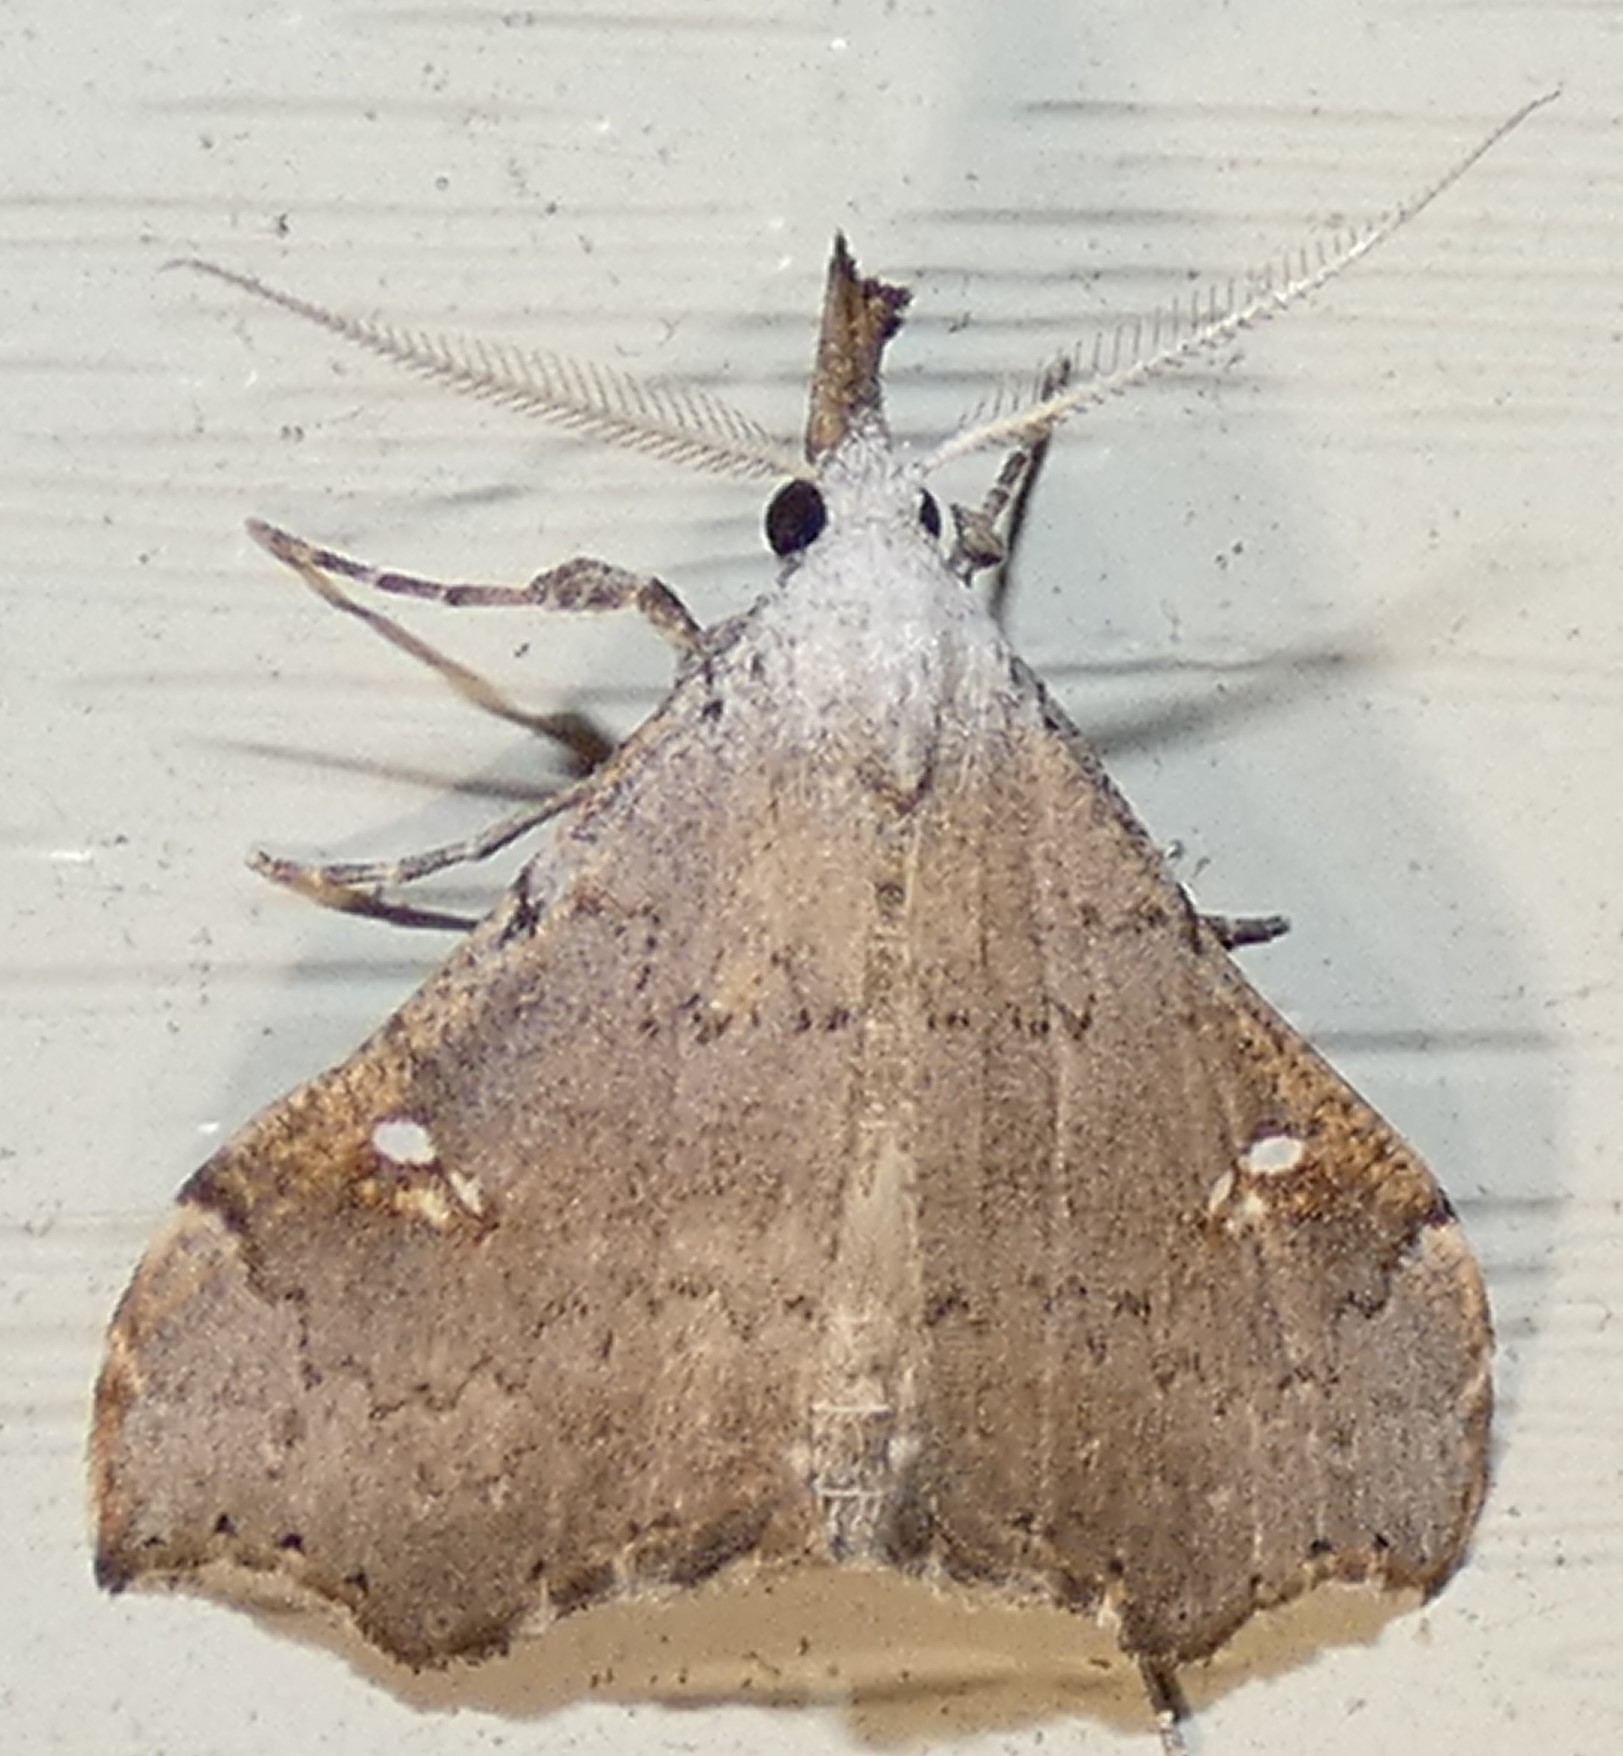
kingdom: Animalia
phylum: Arthropoda
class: Insecta
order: Lepidoptera
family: Erebidae
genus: Redectis
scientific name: Redectis vitrea
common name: White-spotted redectis
